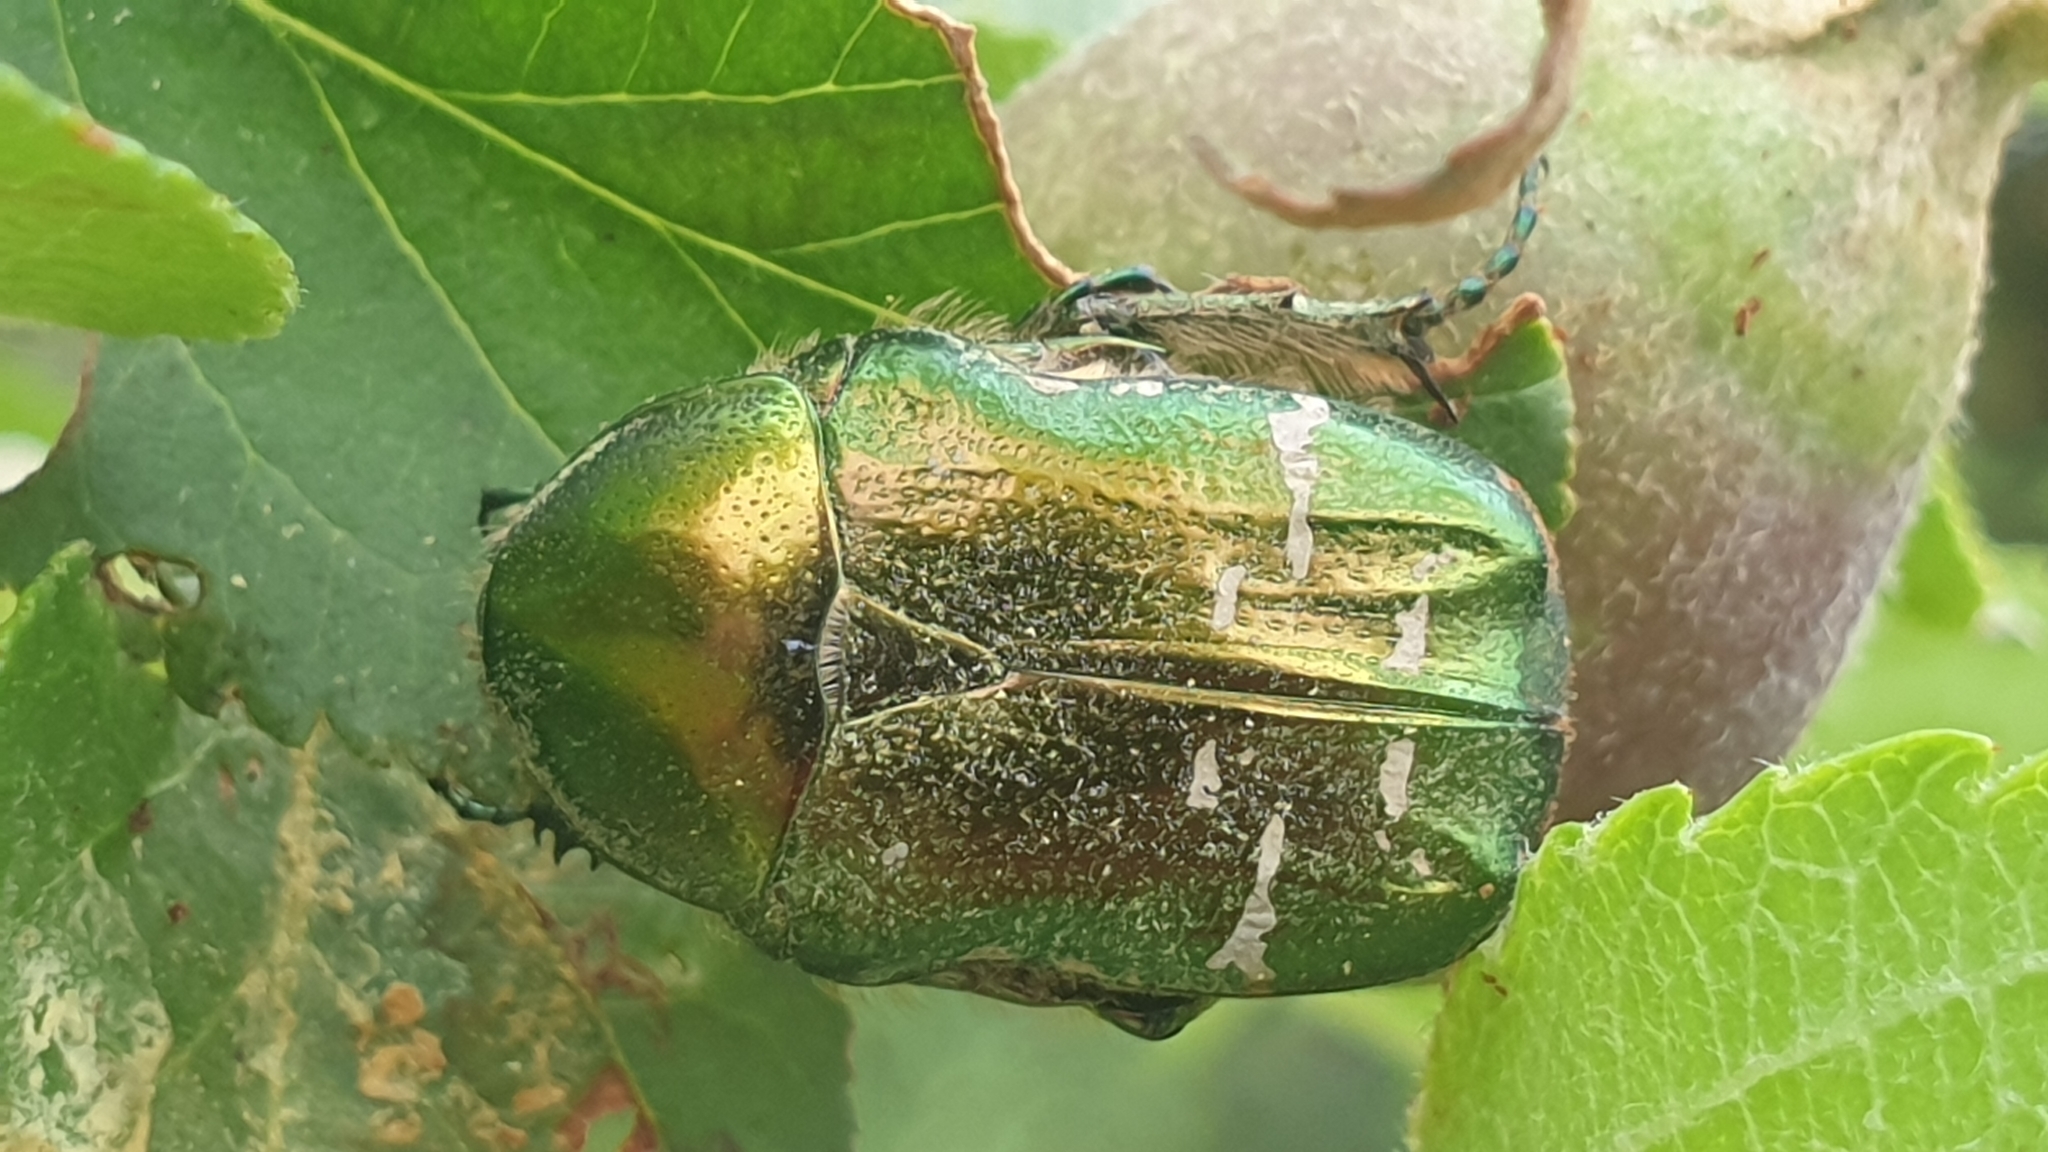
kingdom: Animalia
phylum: Arthropoda
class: Insecta
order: Coleoptera
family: Scarabaeidae
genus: Cetonia
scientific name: Cetonia aurata
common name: Rose chafer
